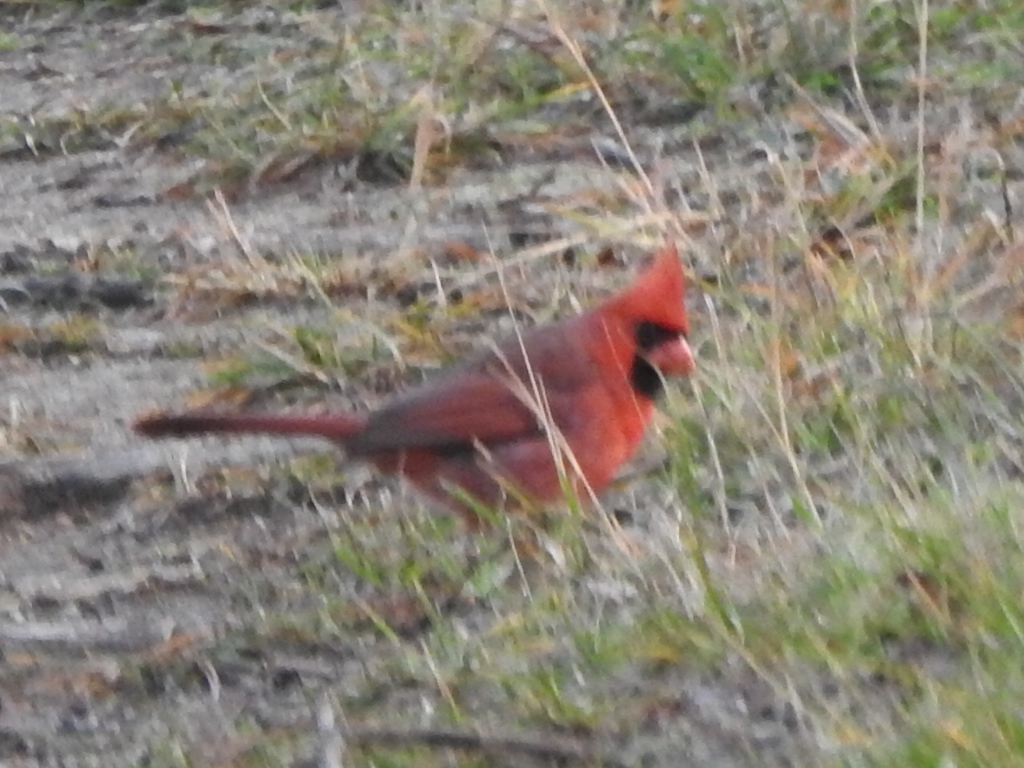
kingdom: Animalia
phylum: Chordata
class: Aves
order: Passeriformes
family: Cardinalidae
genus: Cardinalis
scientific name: Cardinalis cardinalis
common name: Northern cardinal
